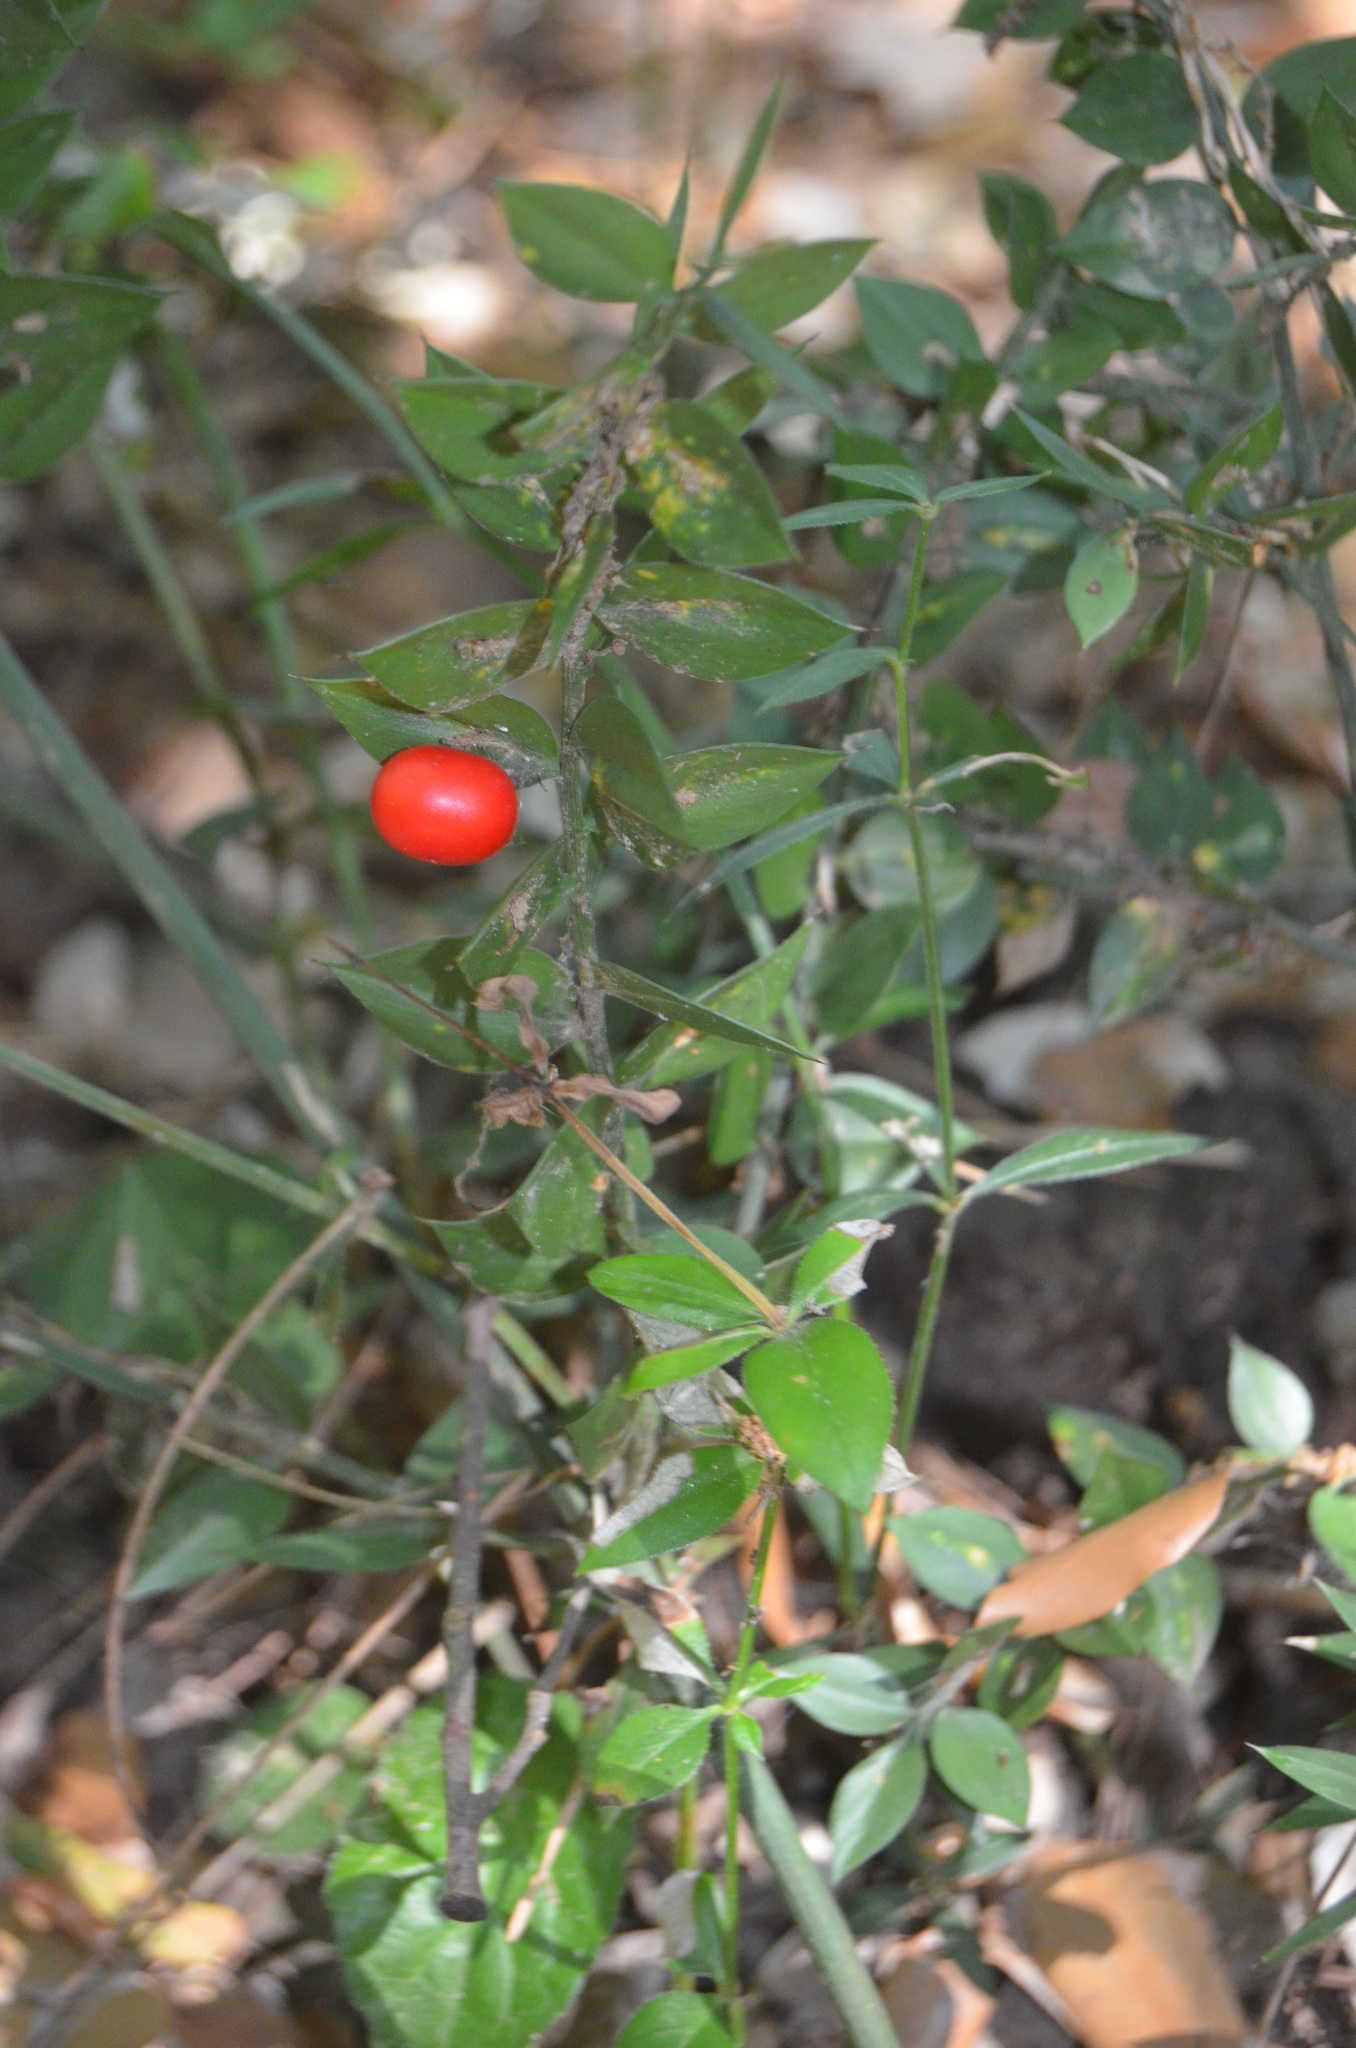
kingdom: Plantae
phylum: Tracheophyta
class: Liliopsida
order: Asparagales
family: Asparagaceae
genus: Ruscus
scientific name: Ruscus aculeatus
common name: Butcher's-broom
